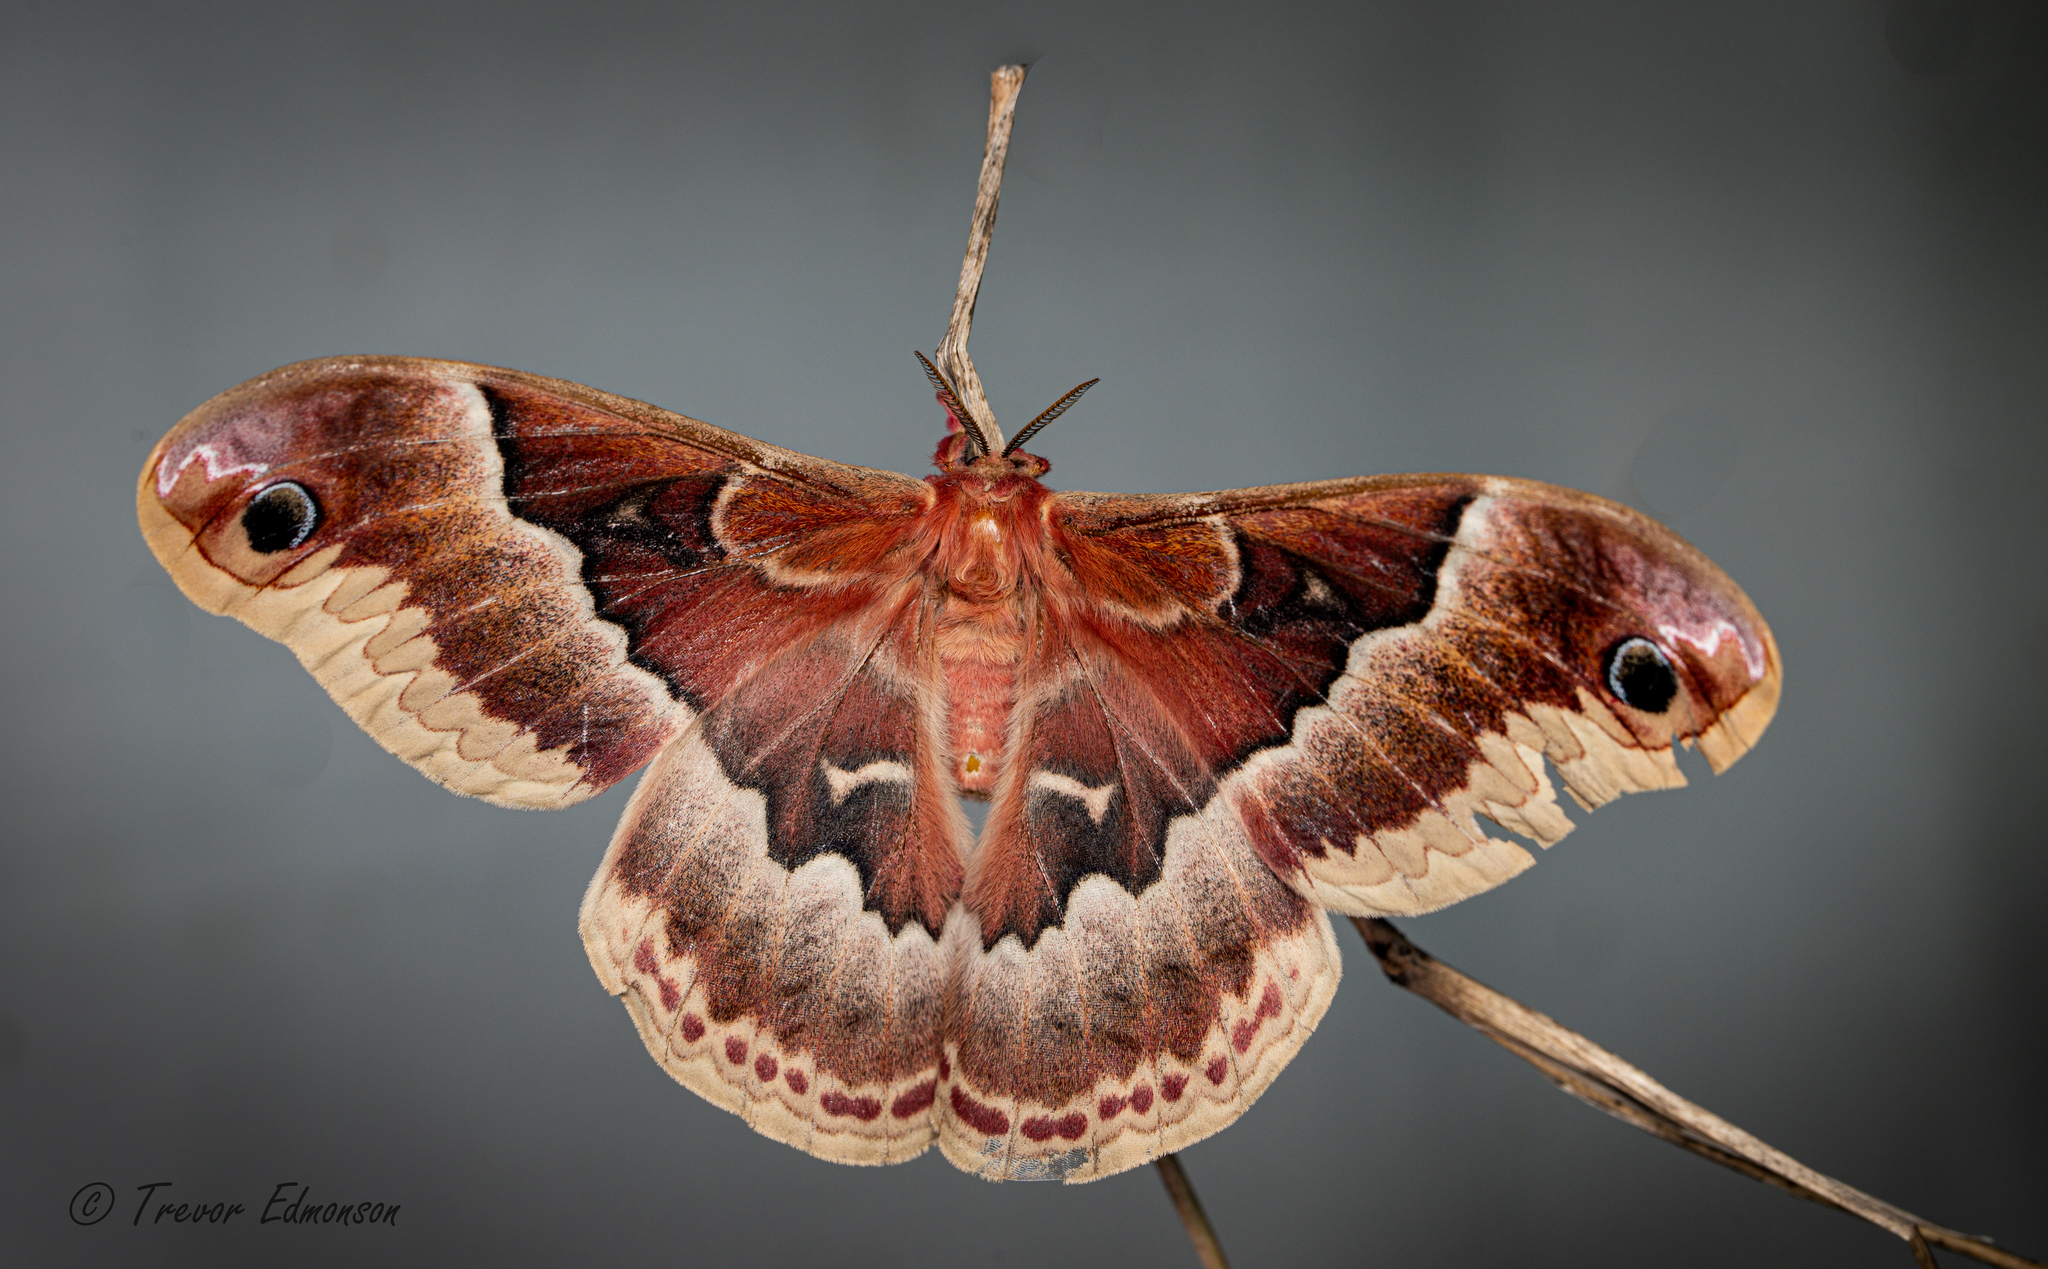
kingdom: Animalia
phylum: Arthropoda
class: Insecta
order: Lepidoptera
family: Saturniidae
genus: Callosamia
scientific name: Callosamia promethea
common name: Promethea silkmoth
